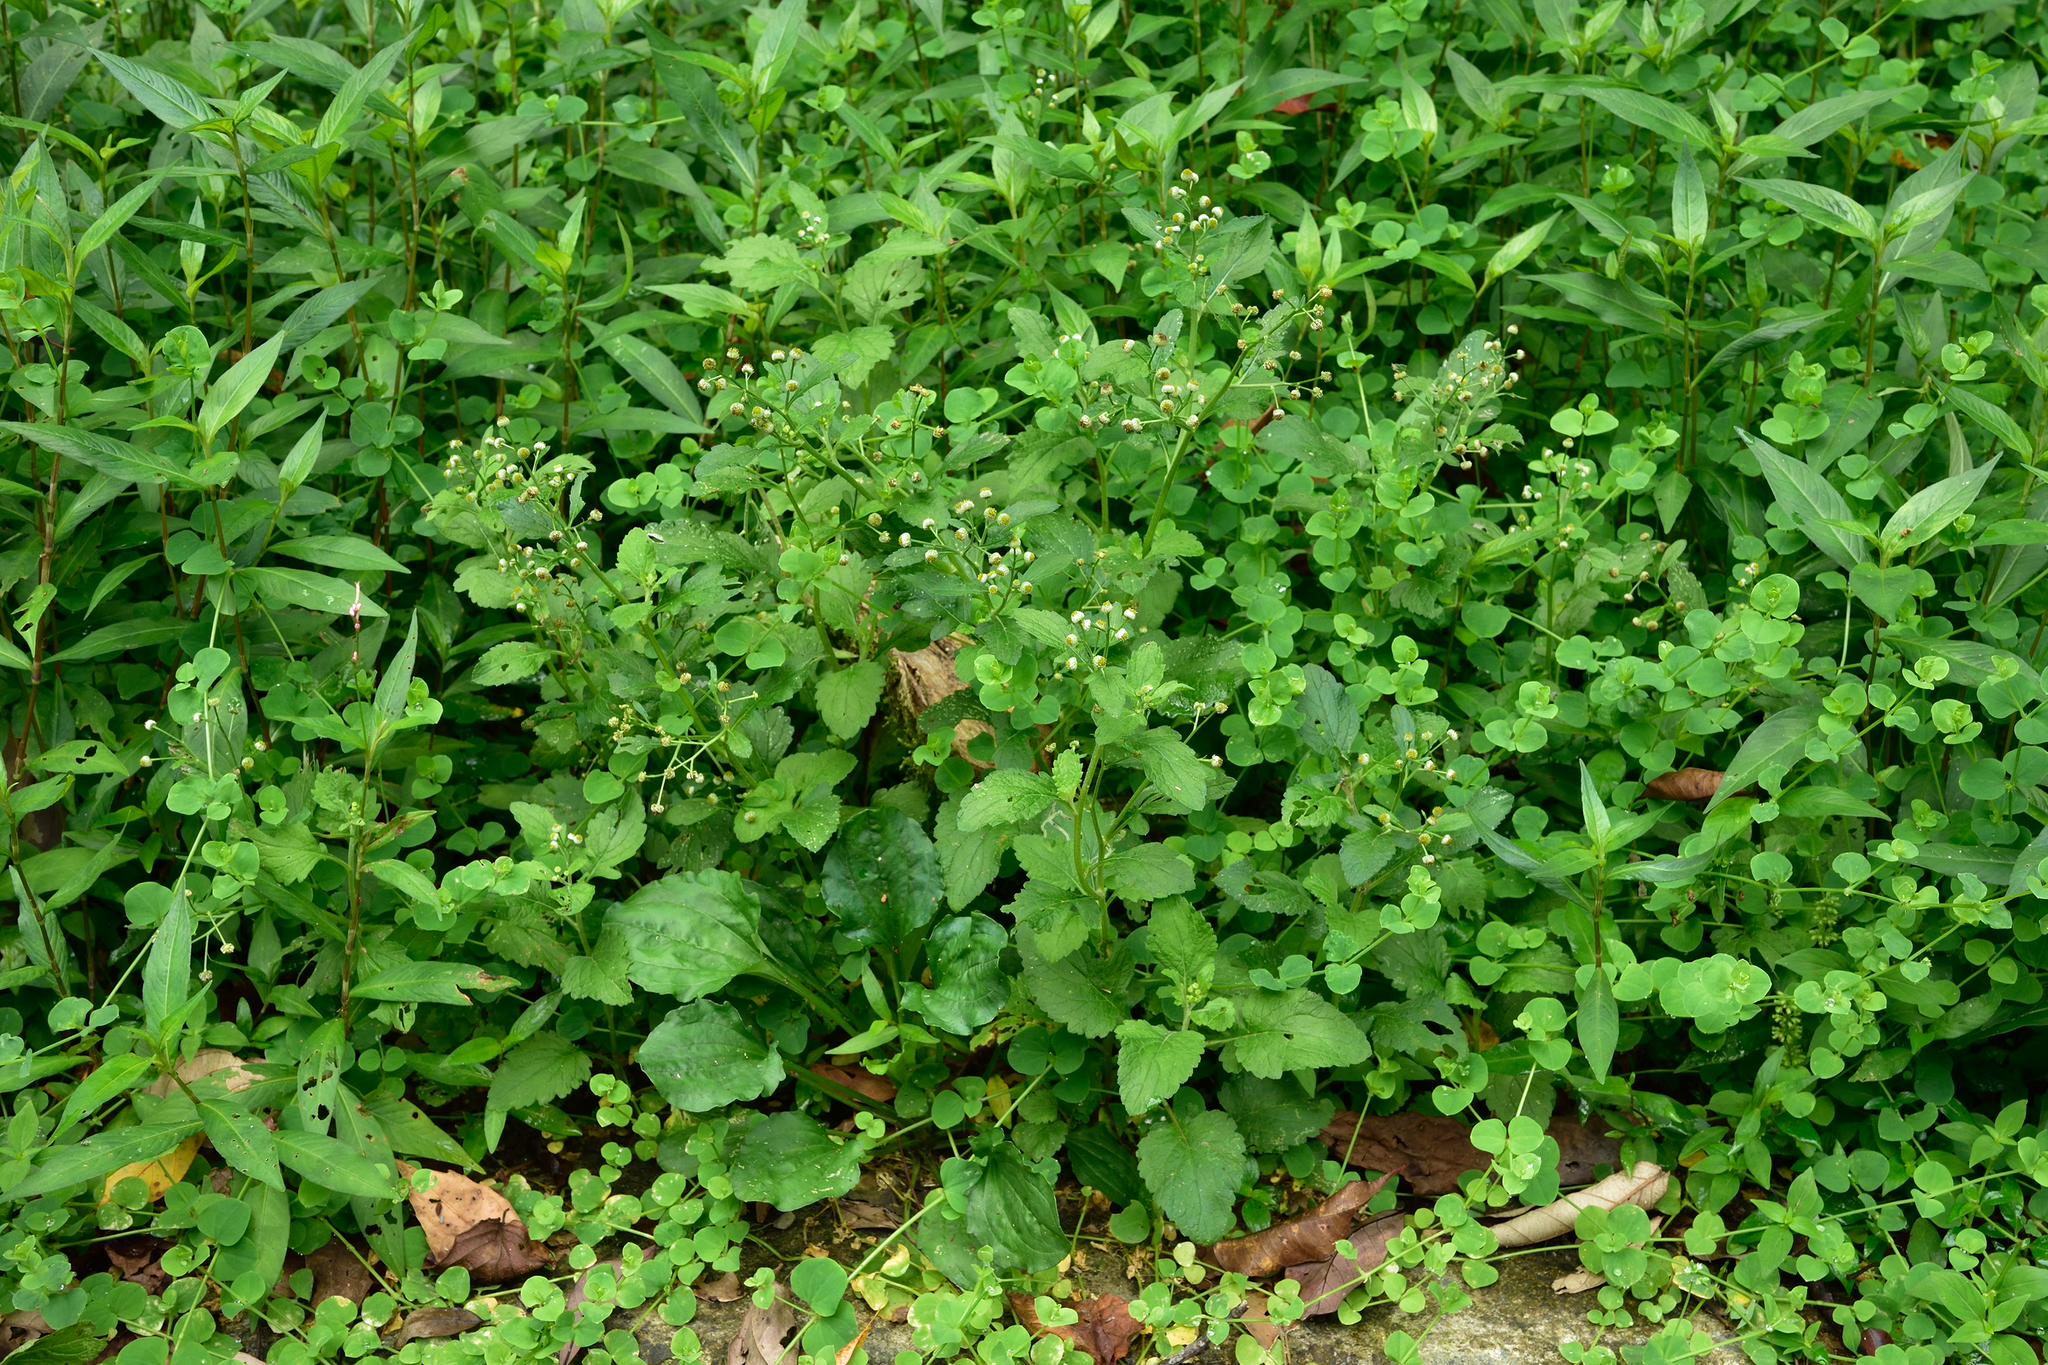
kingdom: Plantae
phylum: Tracheophyta
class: Magnoliopsida
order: Asterales
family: Asteraceae
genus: Dichrocephala
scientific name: Dichrocephala integrifolia
